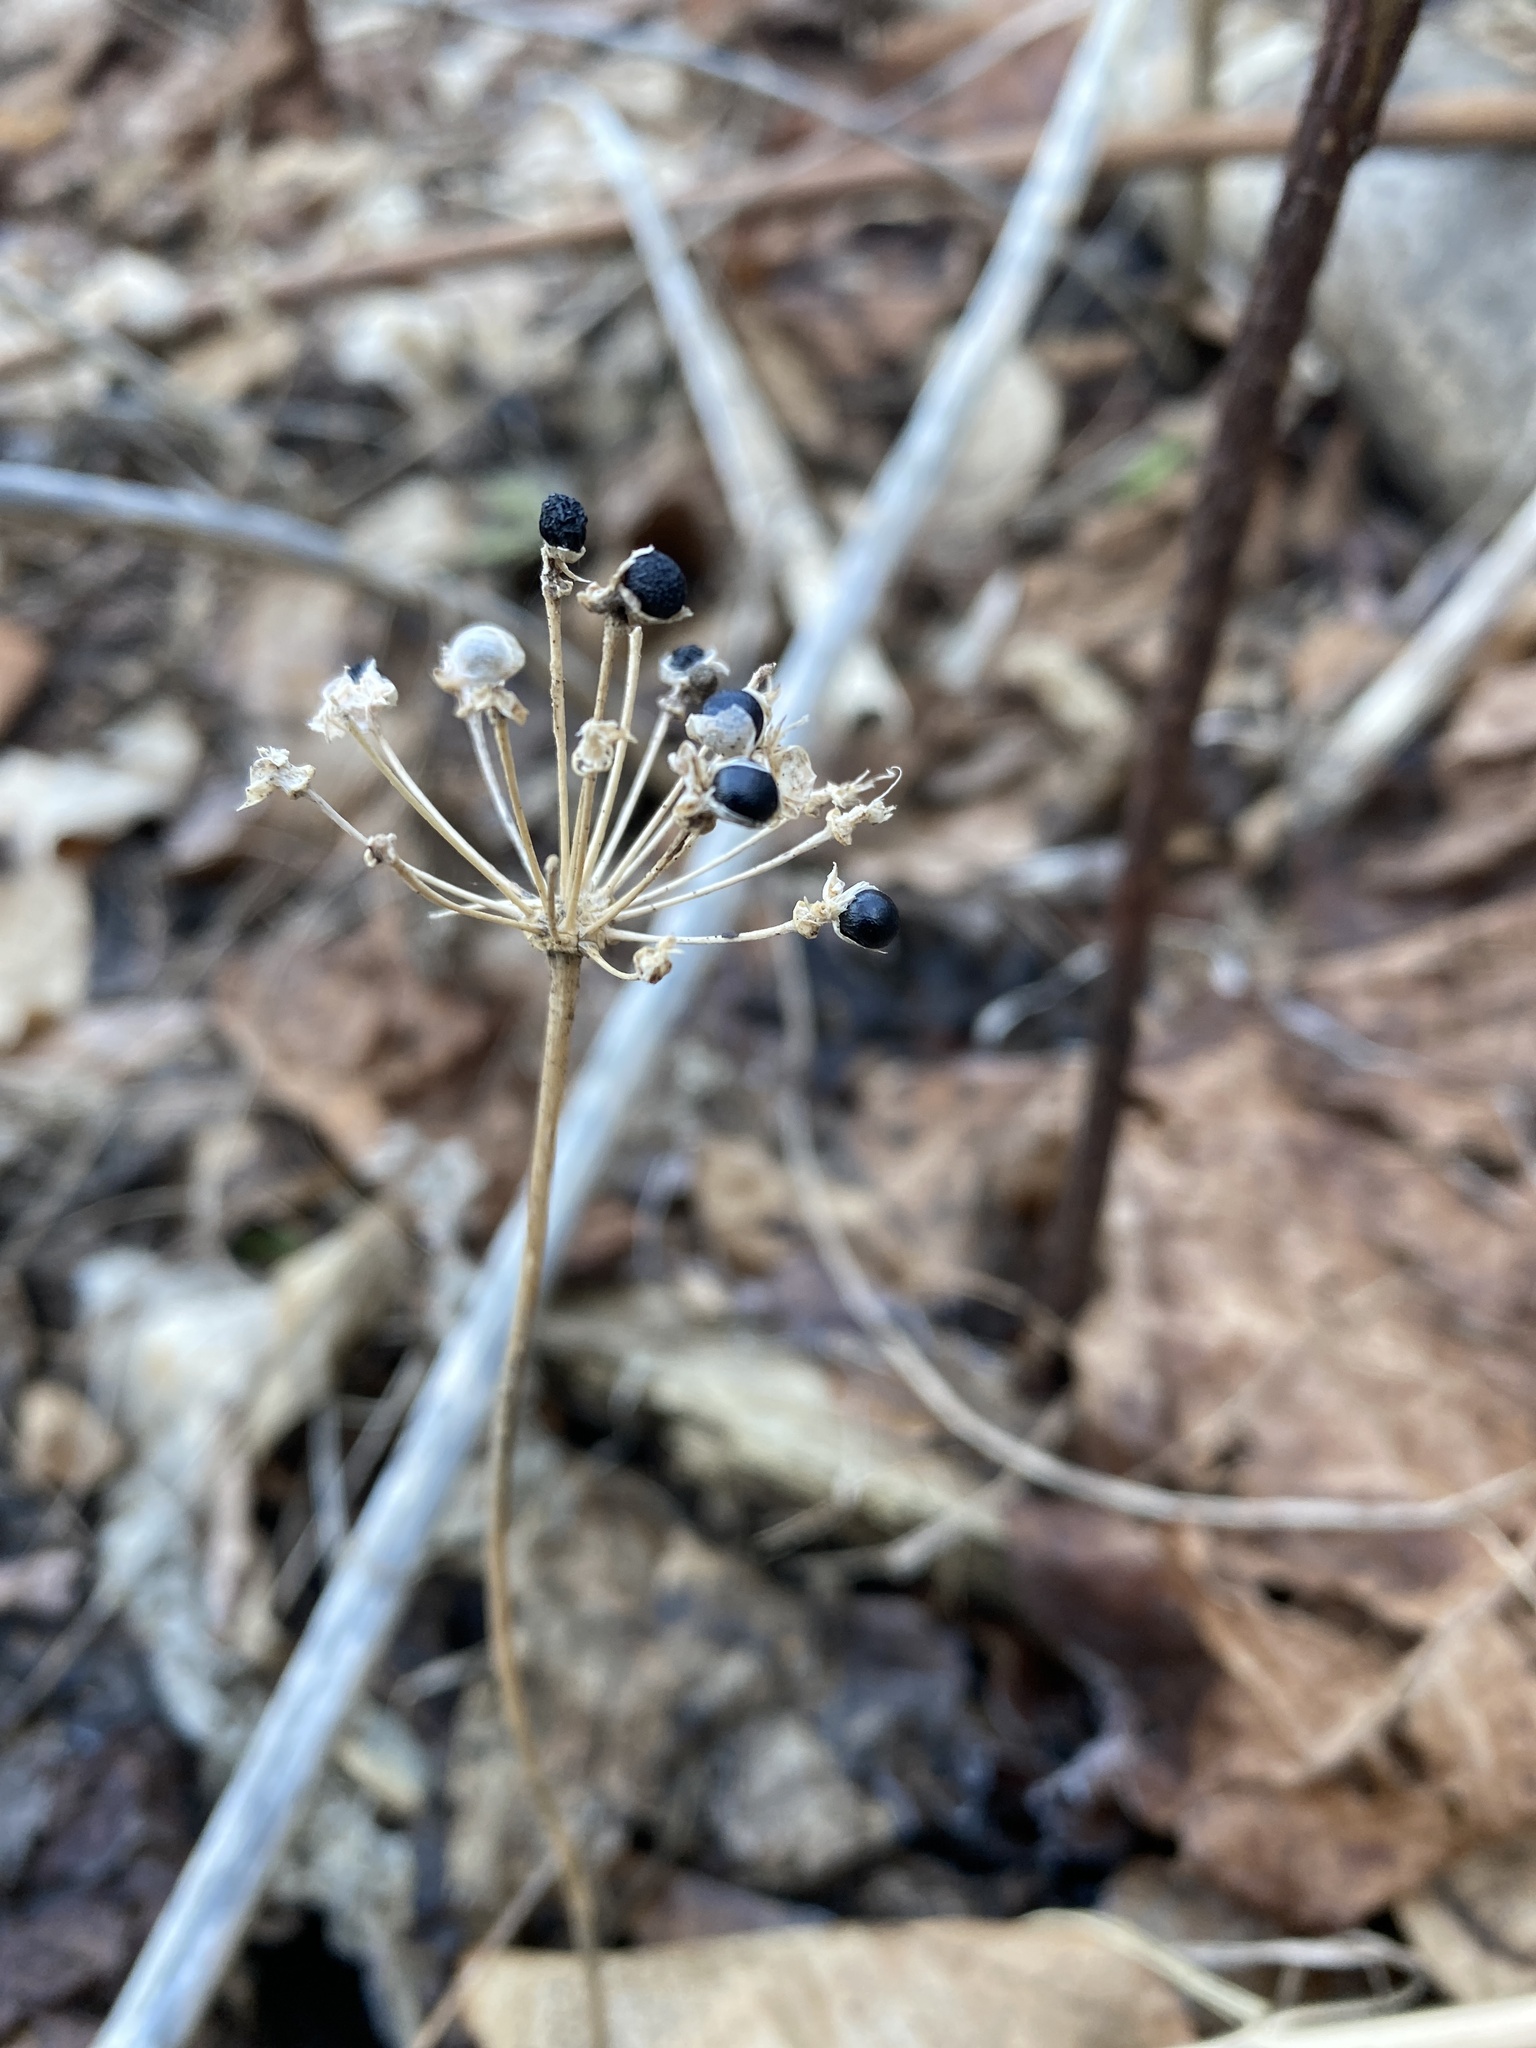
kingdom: Plantae
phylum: Tracheophyta
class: Liliopsida
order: Asparagales
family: Amaryllidaceae
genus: Allium
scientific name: Allium tricoccum
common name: Ramp
